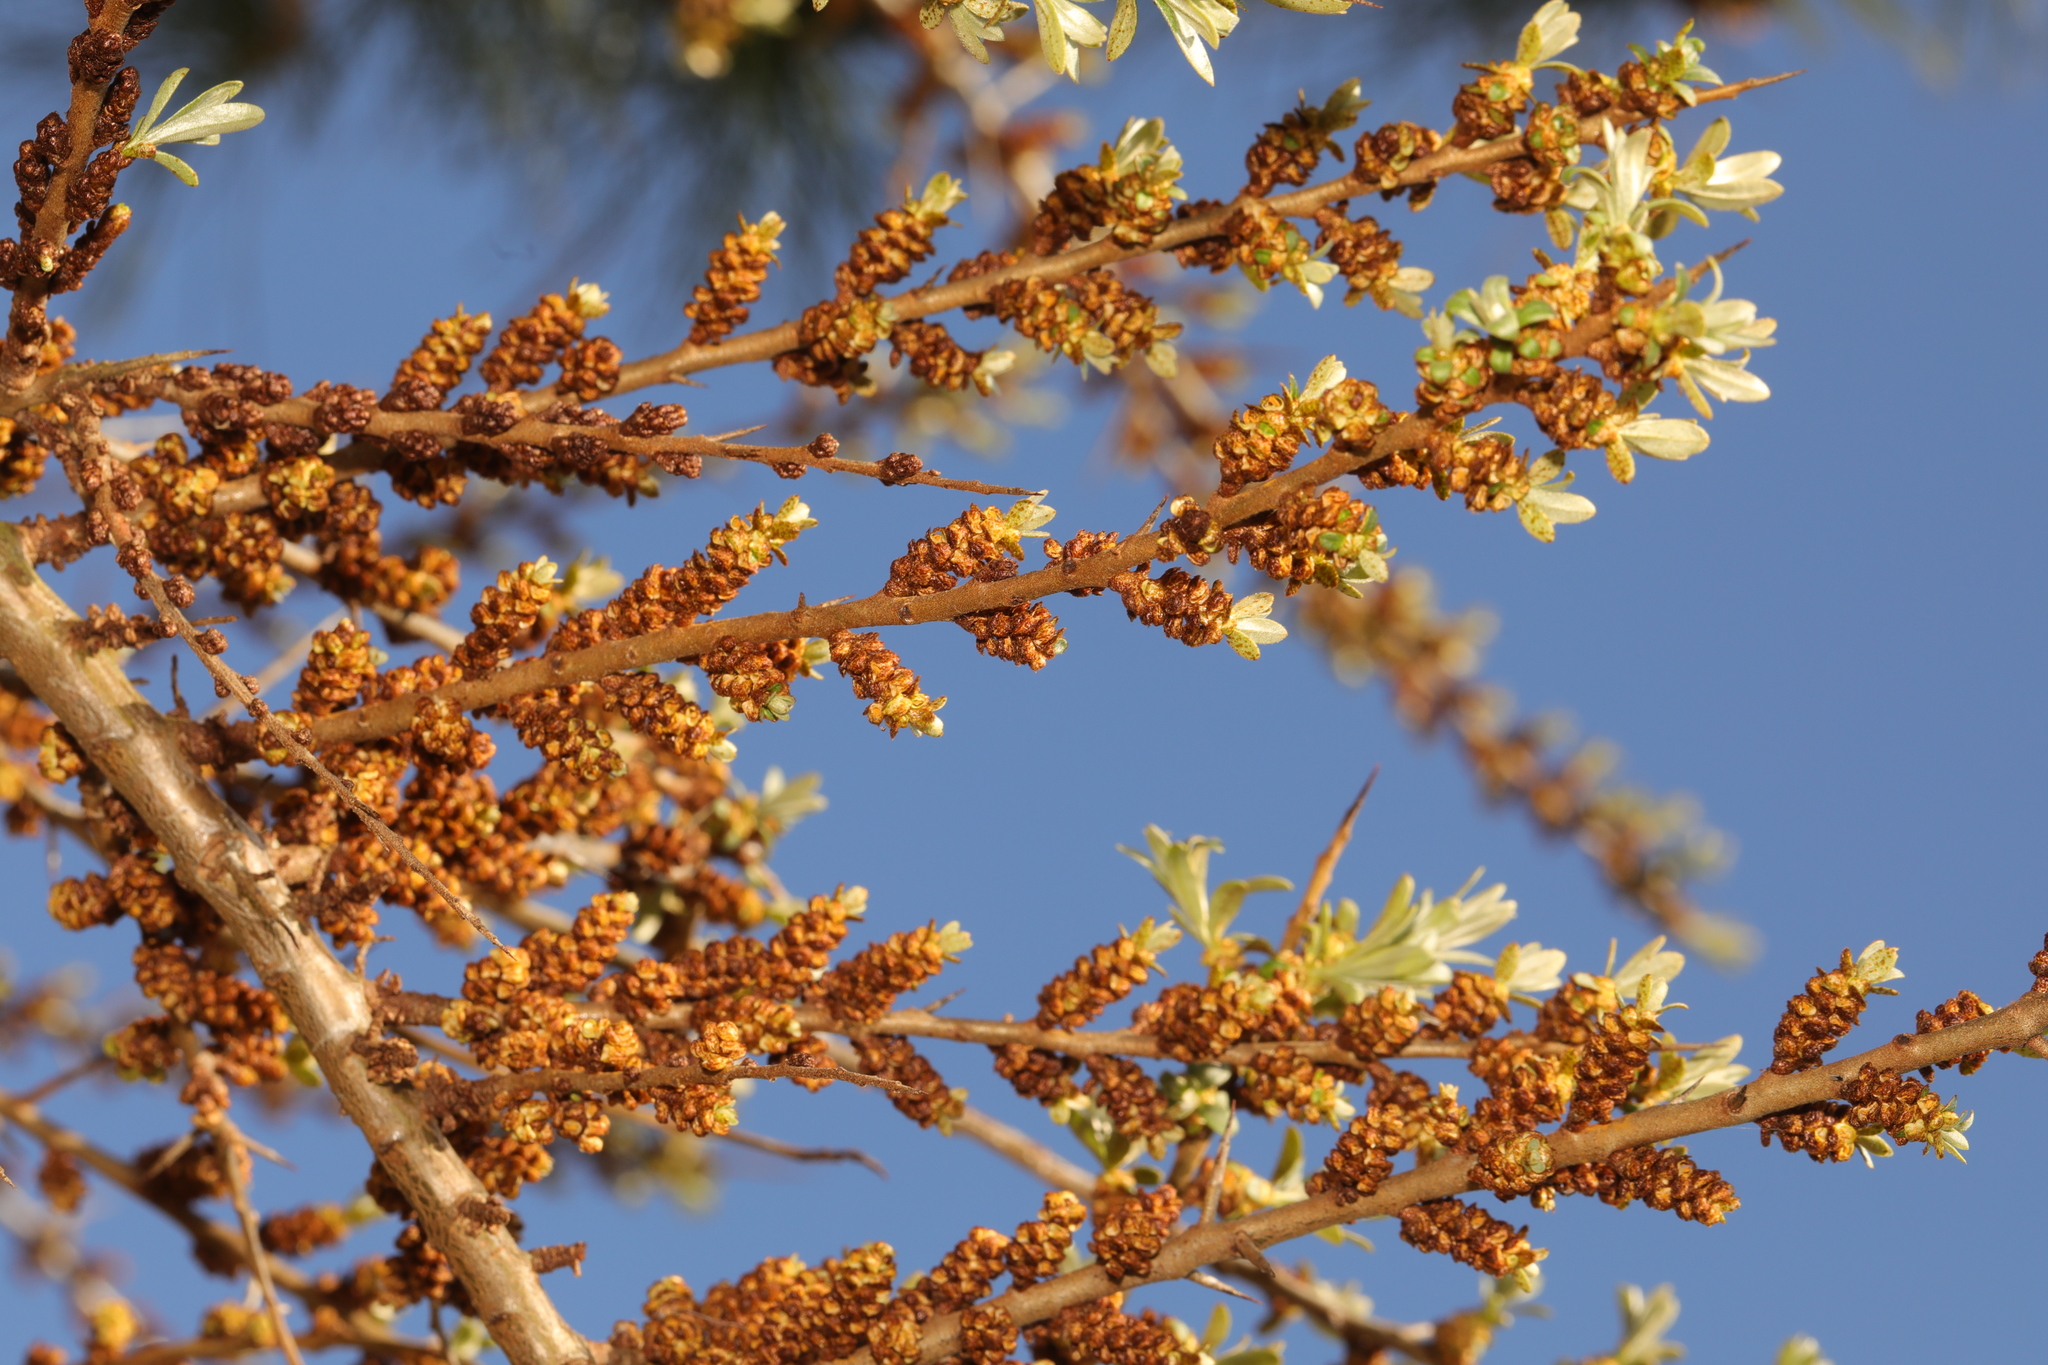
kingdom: Plantae
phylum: Tracheophyta
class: Magnoliopsida
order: Rosales
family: Elaeagnaceae
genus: Hippophae
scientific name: Hippophae rhamnoides
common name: Sea-buckthorn
